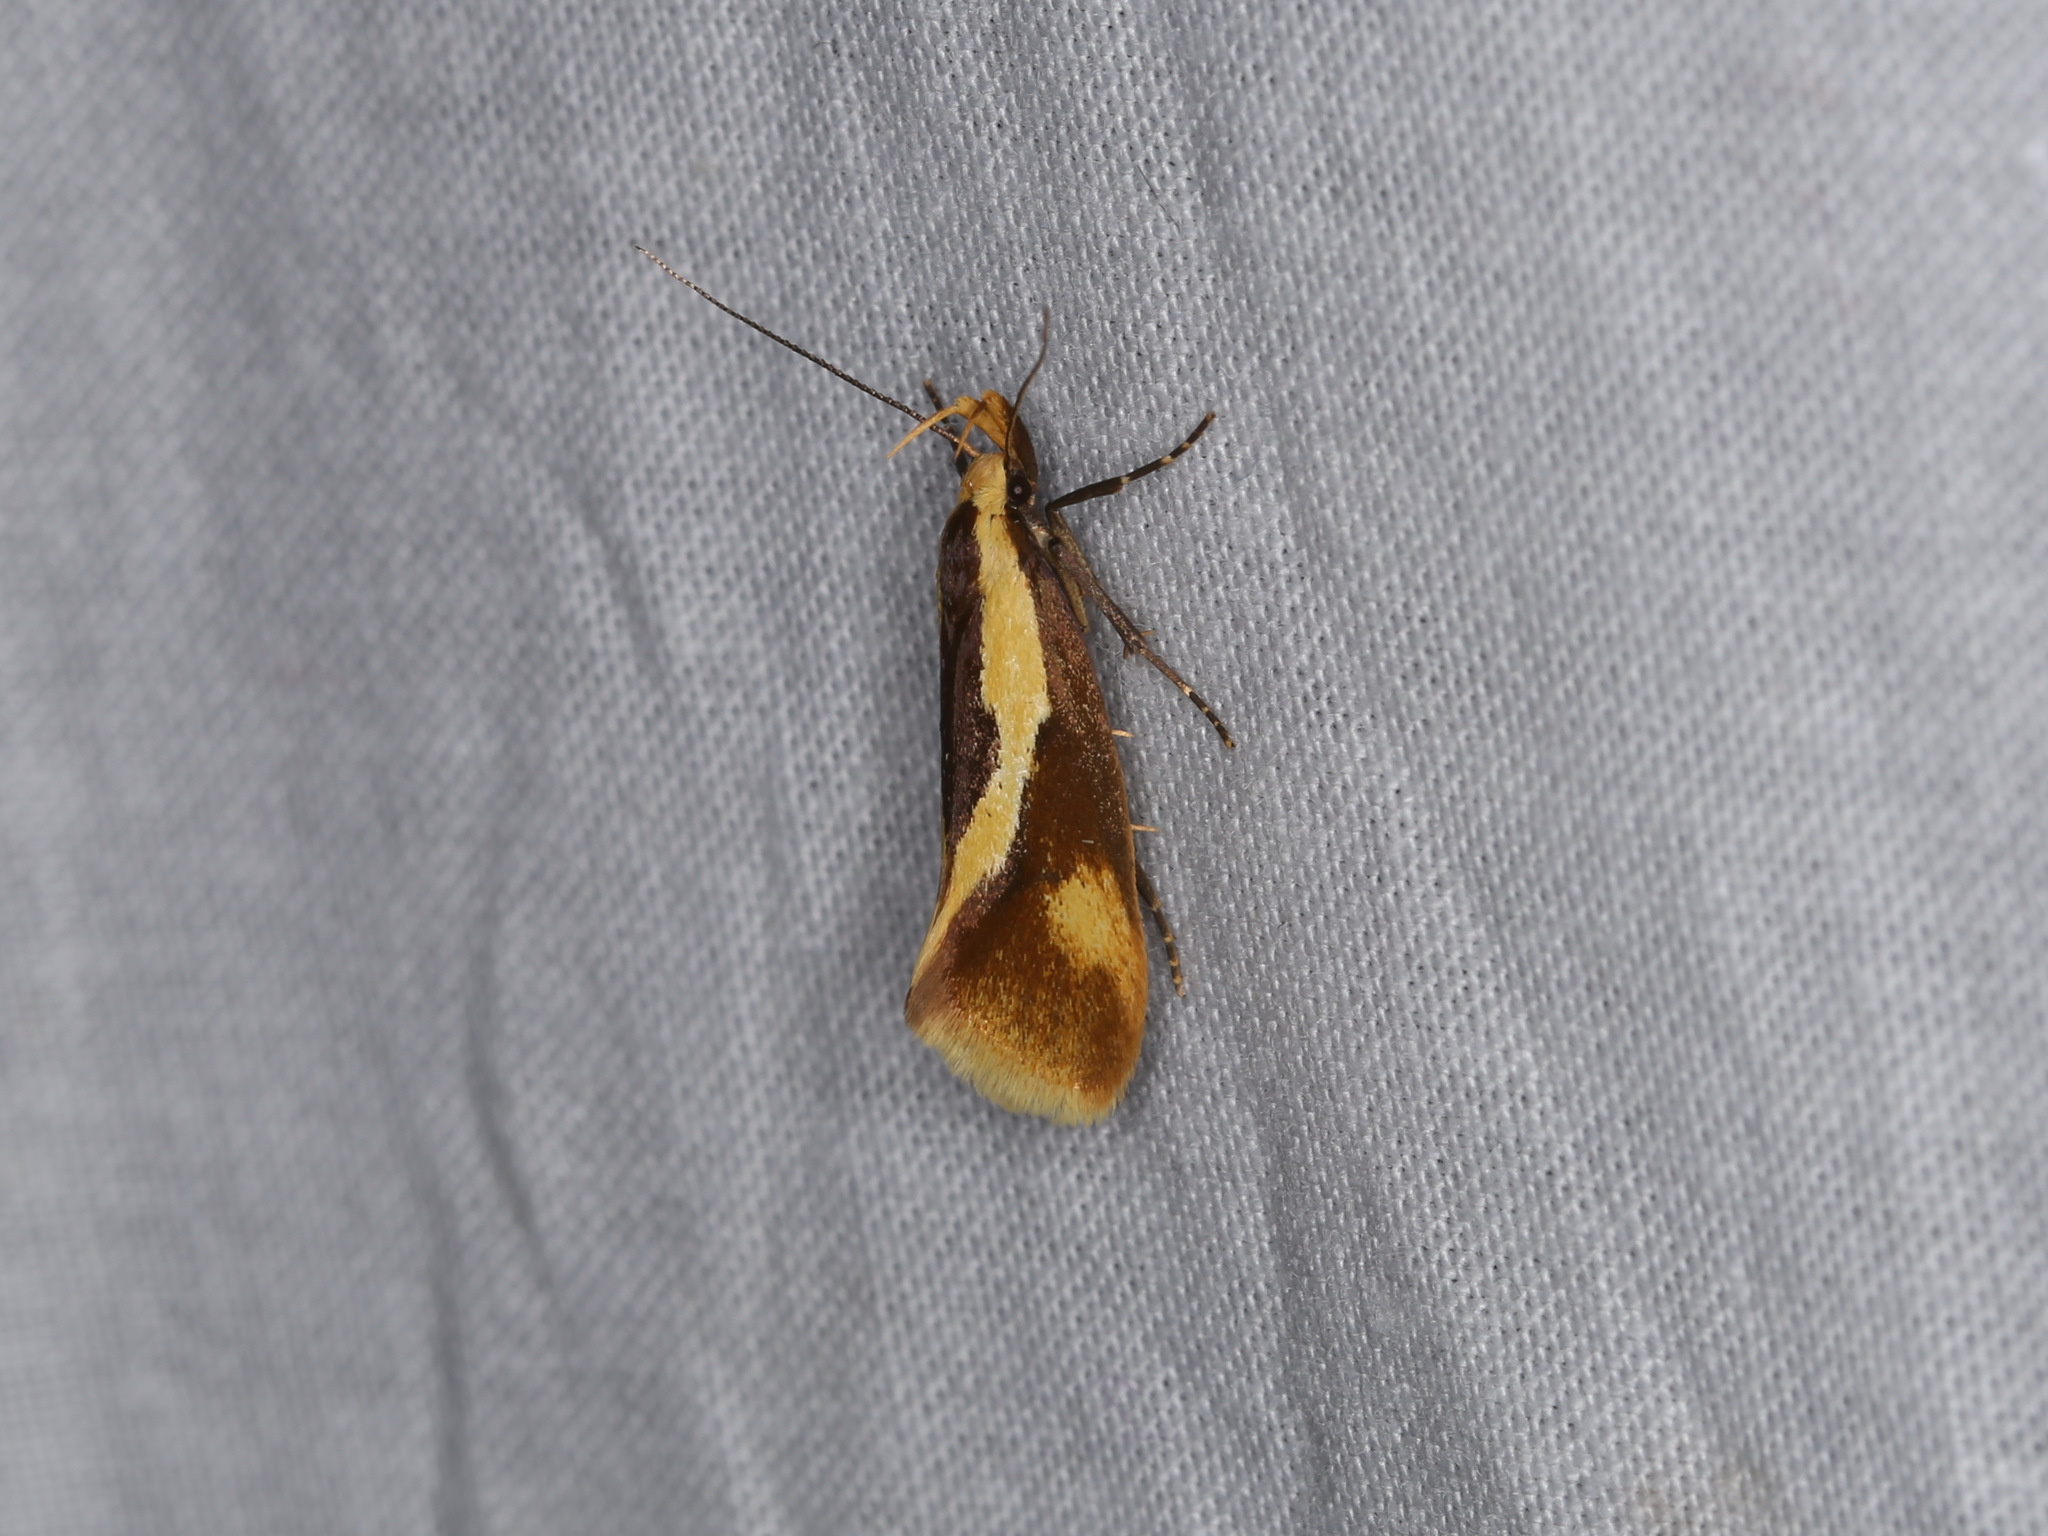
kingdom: Animalia
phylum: Arthropoda
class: Insecta
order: Lepidoptera
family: Oecophoridae
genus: Harpella
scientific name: Harpella forficella
